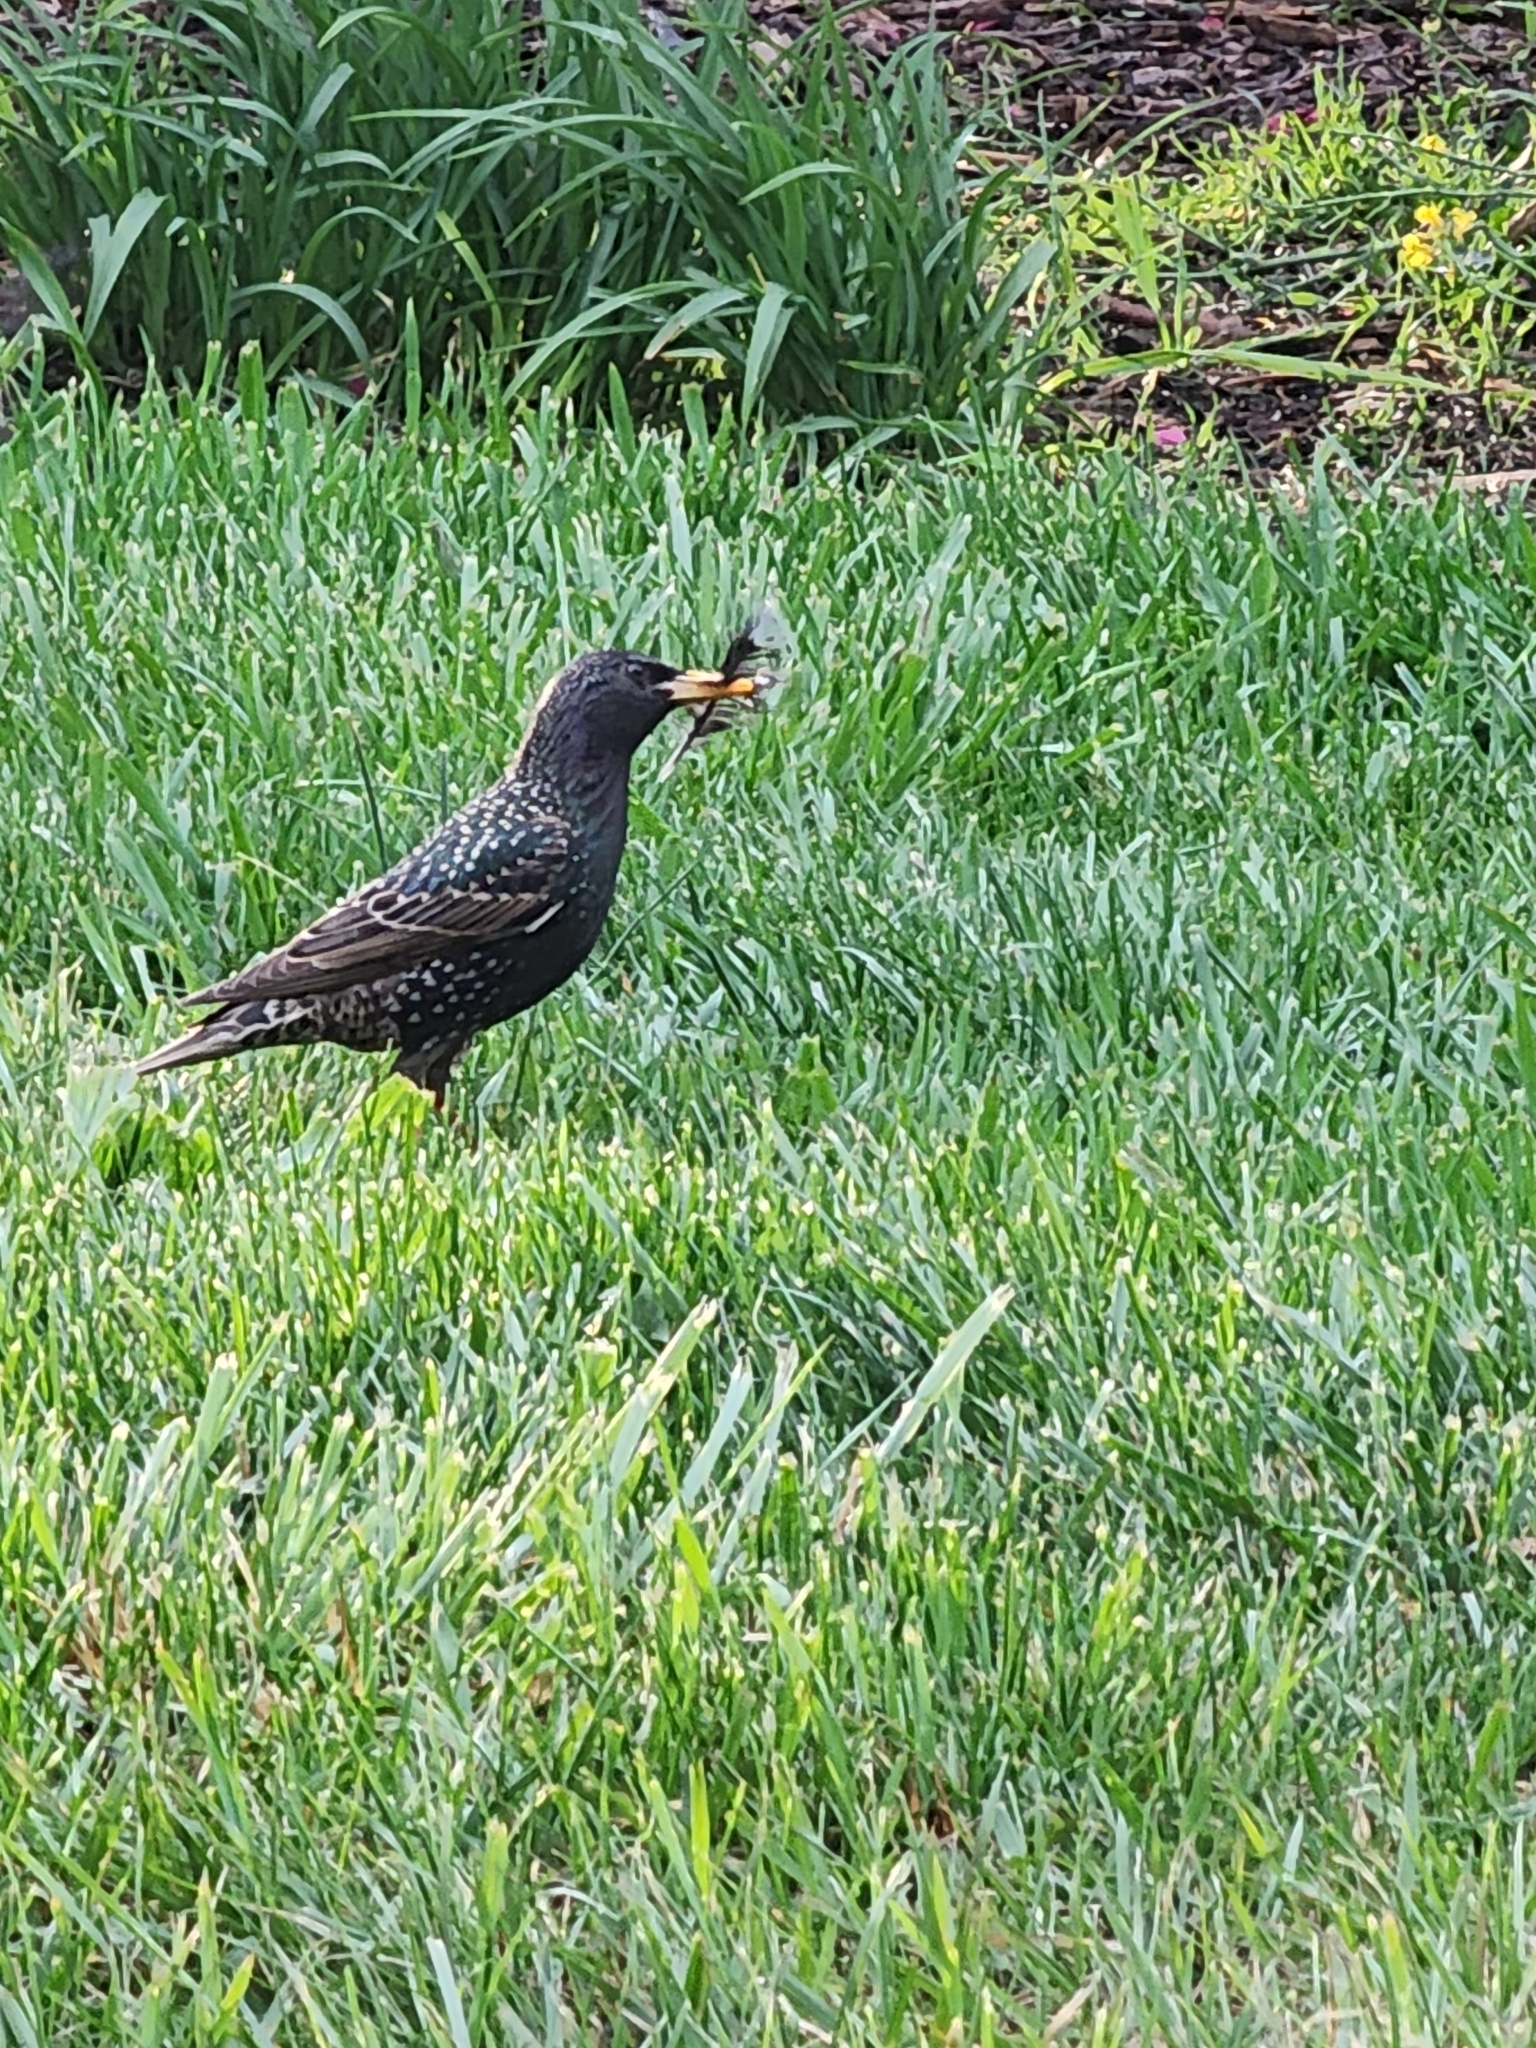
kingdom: Animalia
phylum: Chordata
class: Aves
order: Passeriformes
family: Sturnidae
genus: Sturnus
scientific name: Sturnus vulgaris
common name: Common starling
